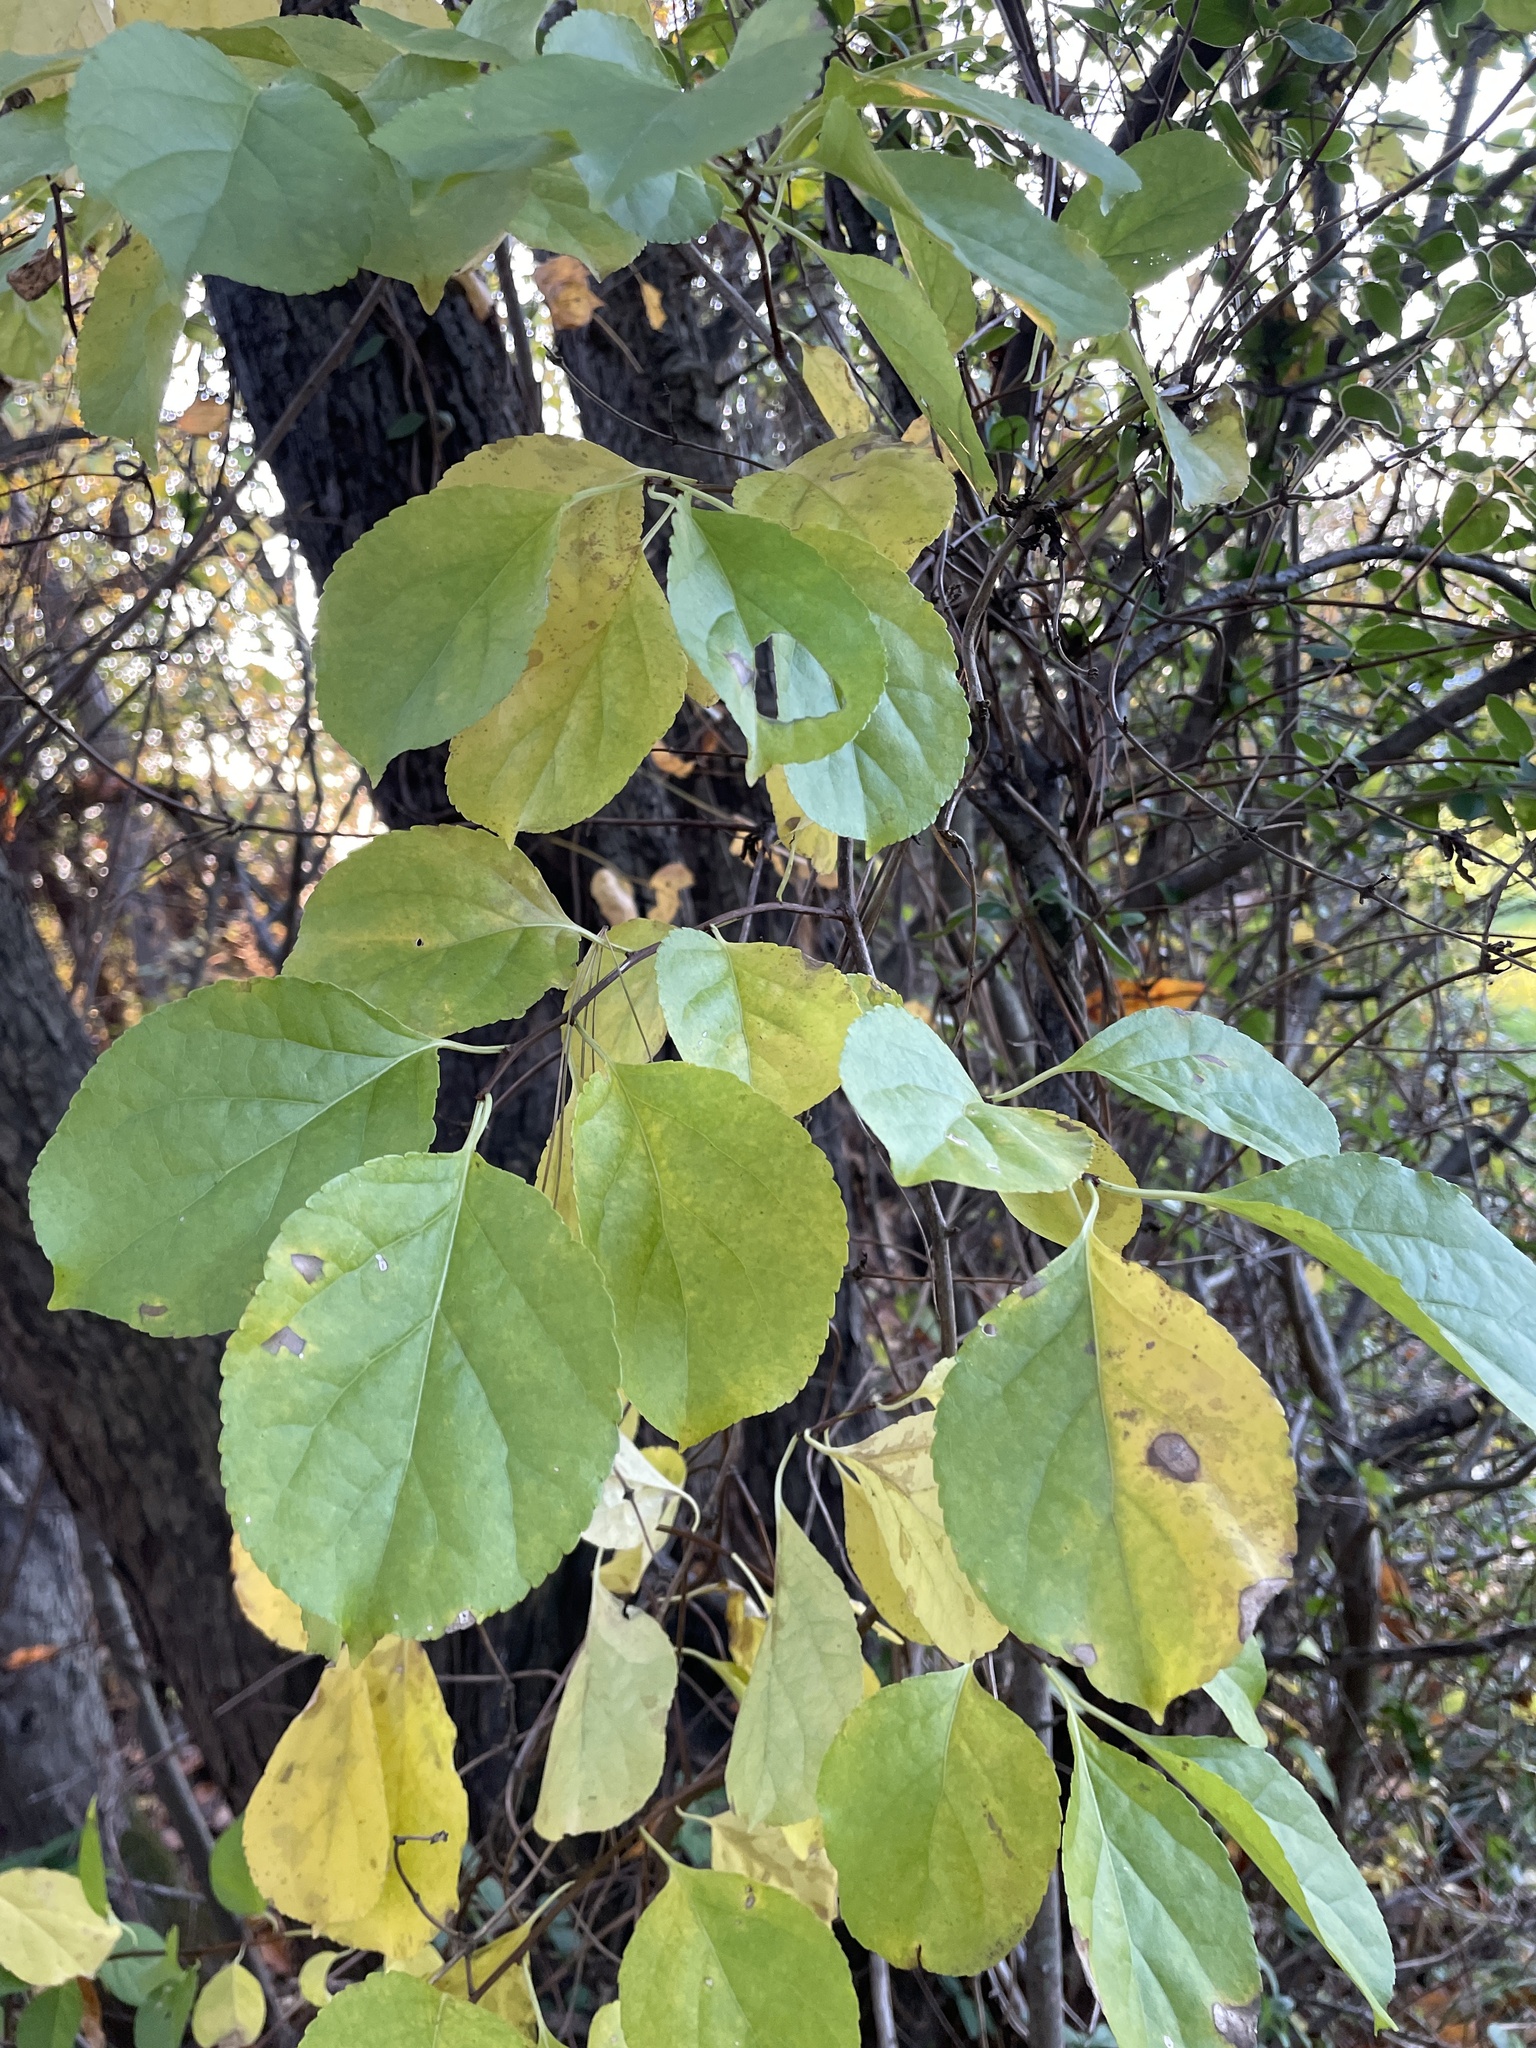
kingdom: Plantae
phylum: Tracheophyta
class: Magnoliopsida
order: Celastrales
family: Celastraceae
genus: Celastrus
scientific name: Celastrus orbiculatus
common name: Oriental bittersweet
